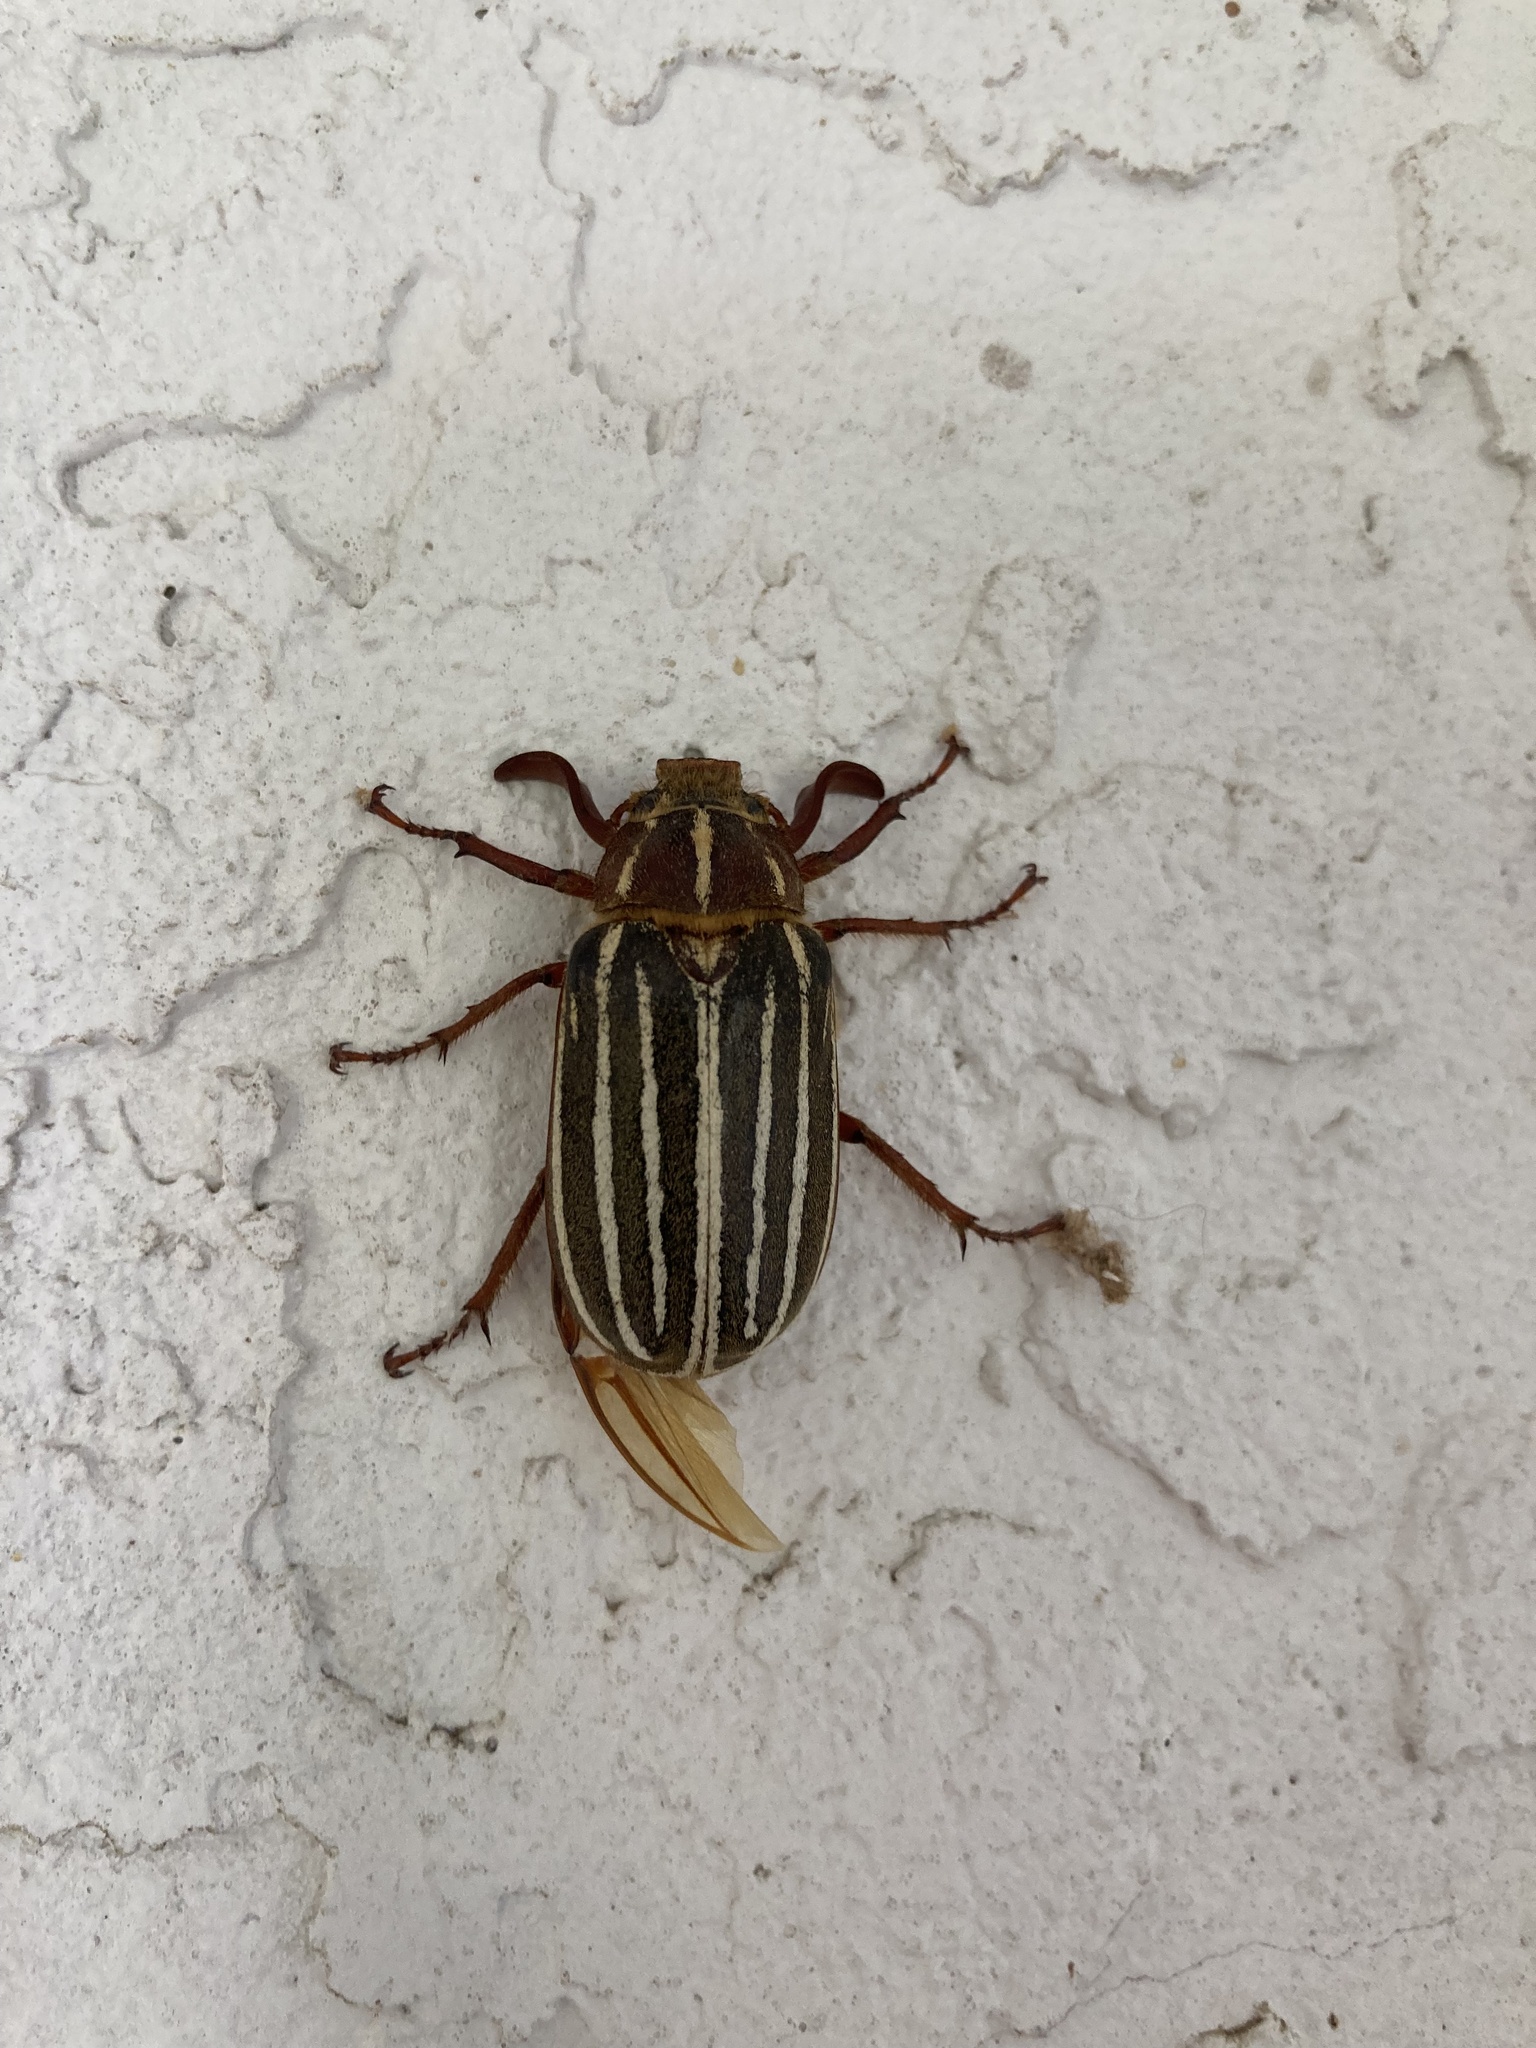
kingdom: Animalia
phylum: Arthropoda
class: Insecta
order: Coleoptera
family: Scarabaeidae
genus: Polyphylla
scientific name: Polyphylla crinita
